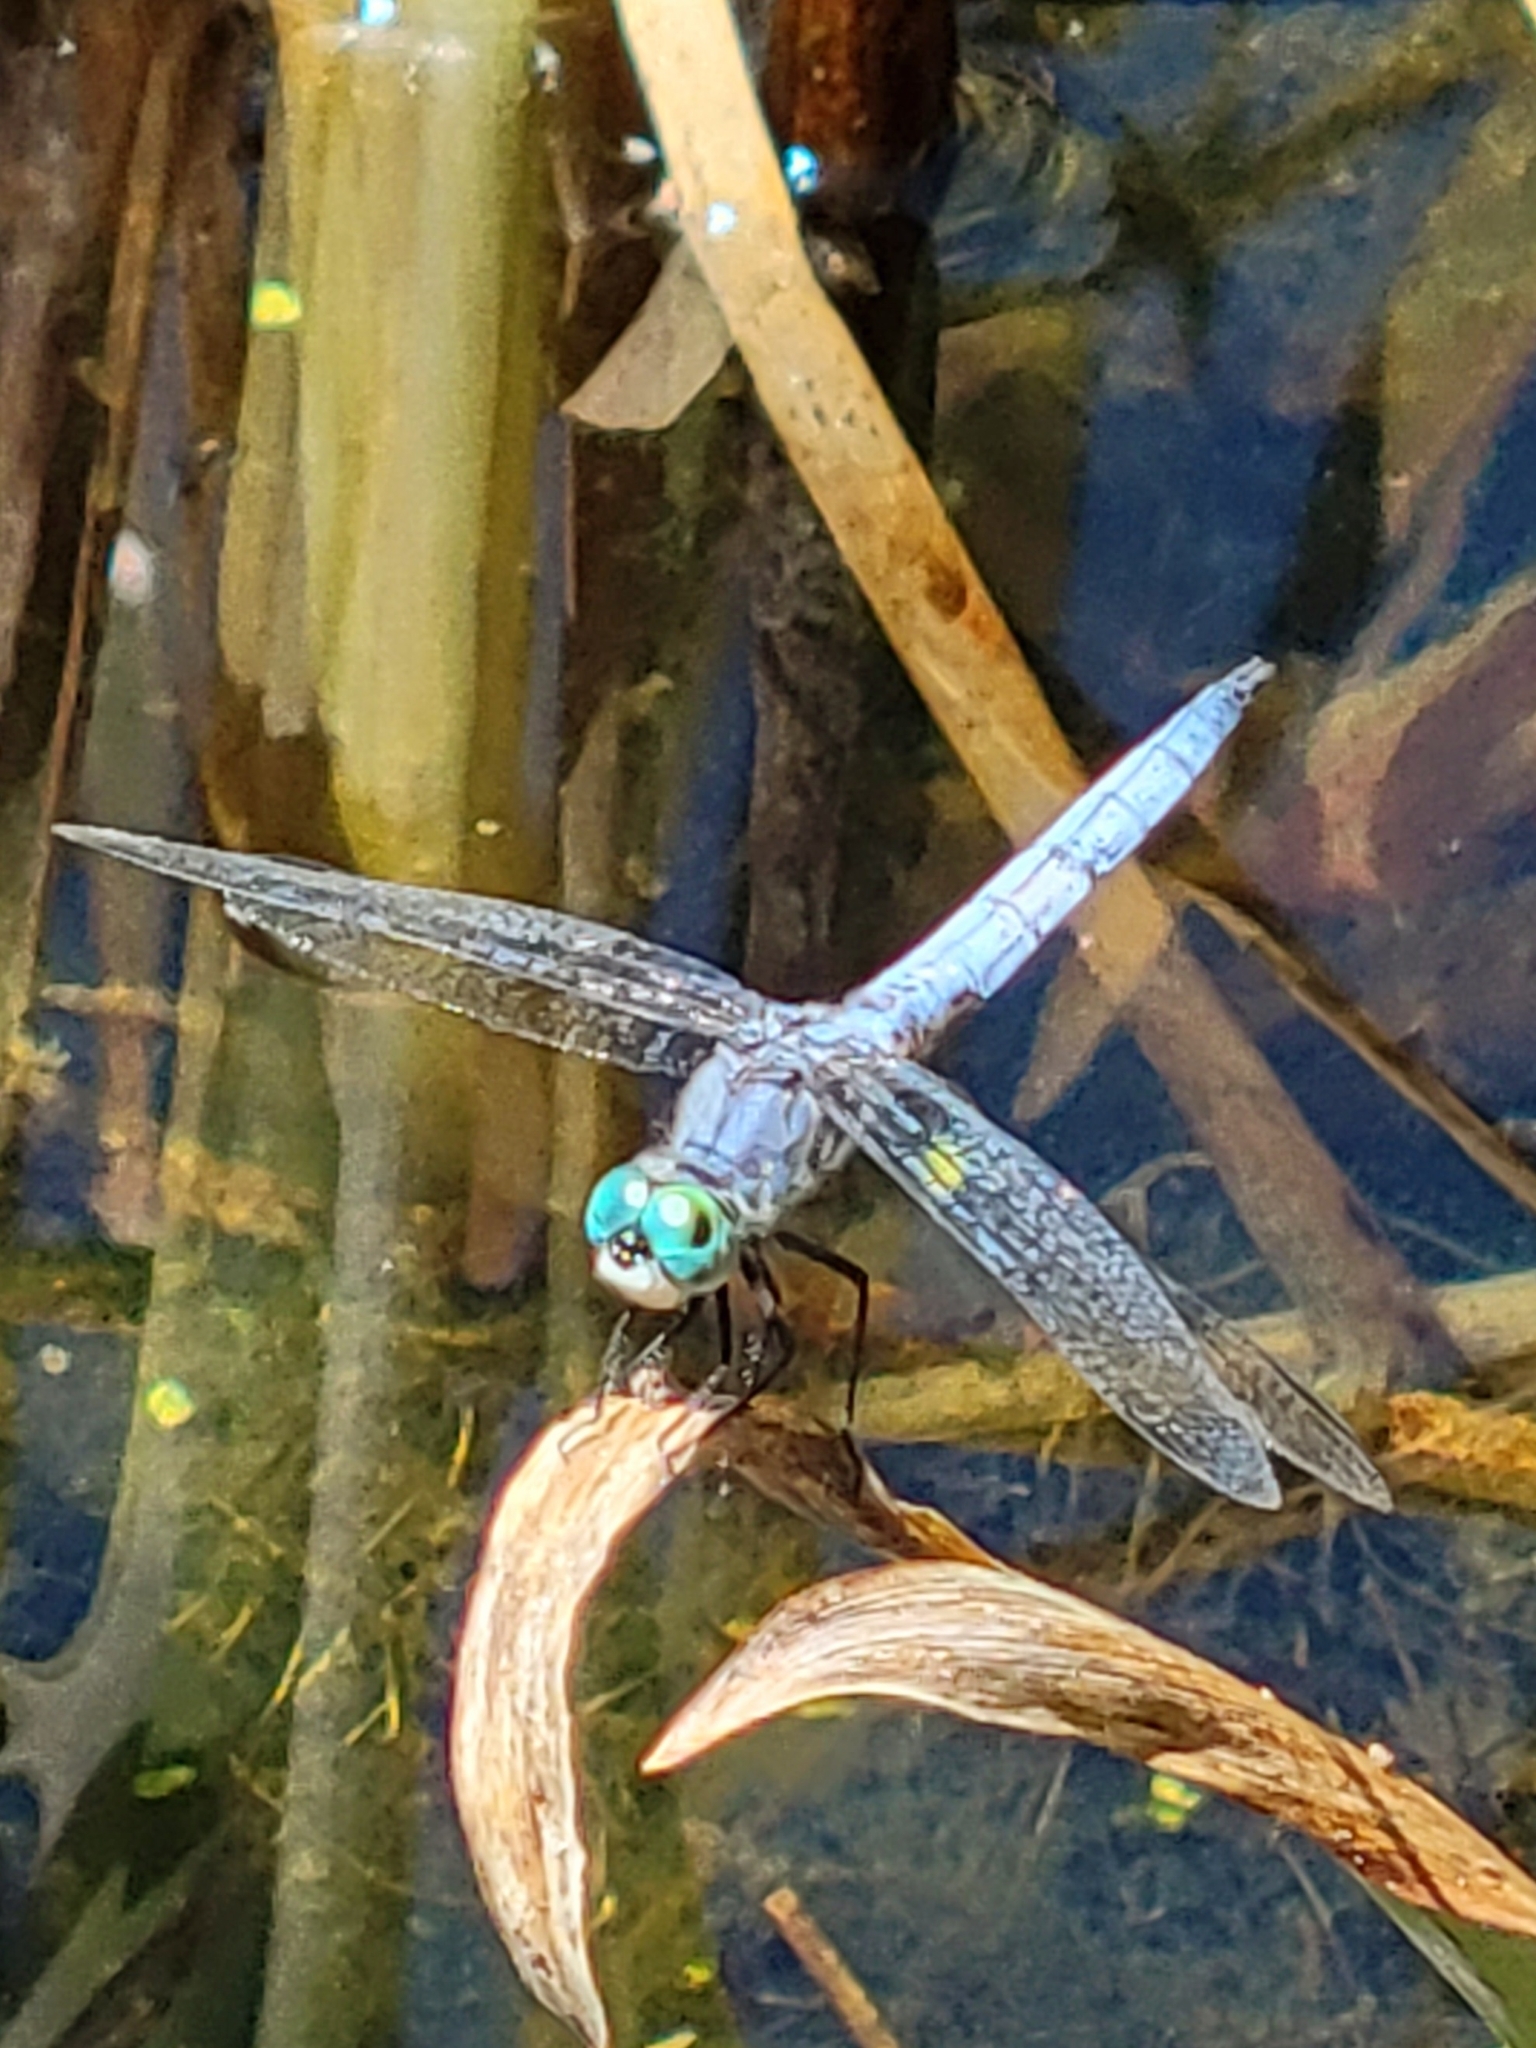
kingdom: Animalia
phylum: Arthropoda
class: Insecta
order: Odonata
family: Libellulidae
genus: Pachydiplax
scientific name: Pachydiplax longipennis
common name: Blue dasher
